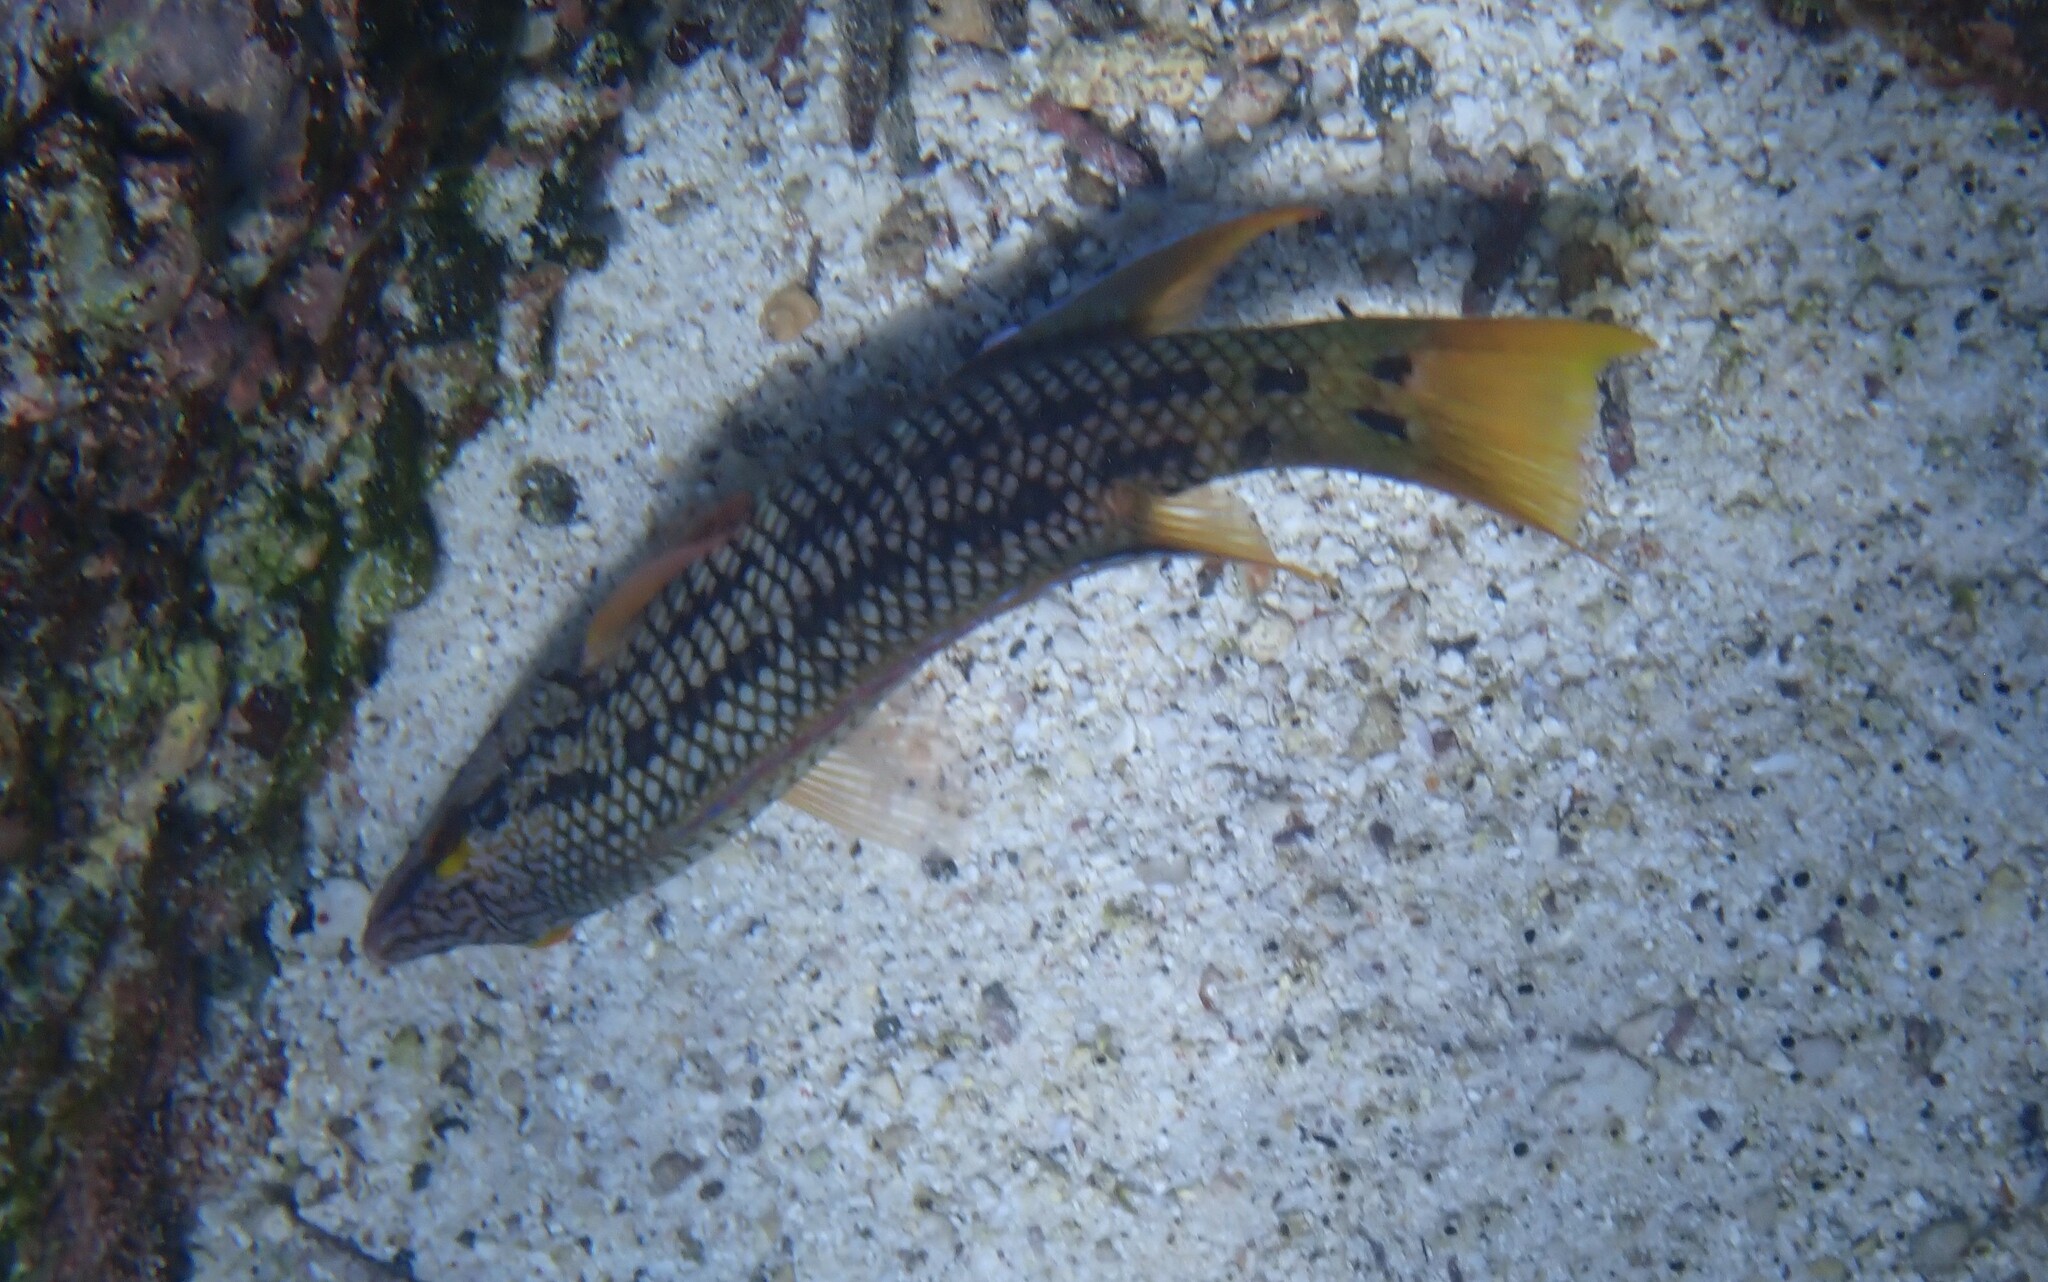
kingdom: Animalia
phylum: Chordata
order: Perciformes
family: Labridae
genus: Bodianus
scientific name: Bodianus diplotaenia
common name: Mexican hogfish
